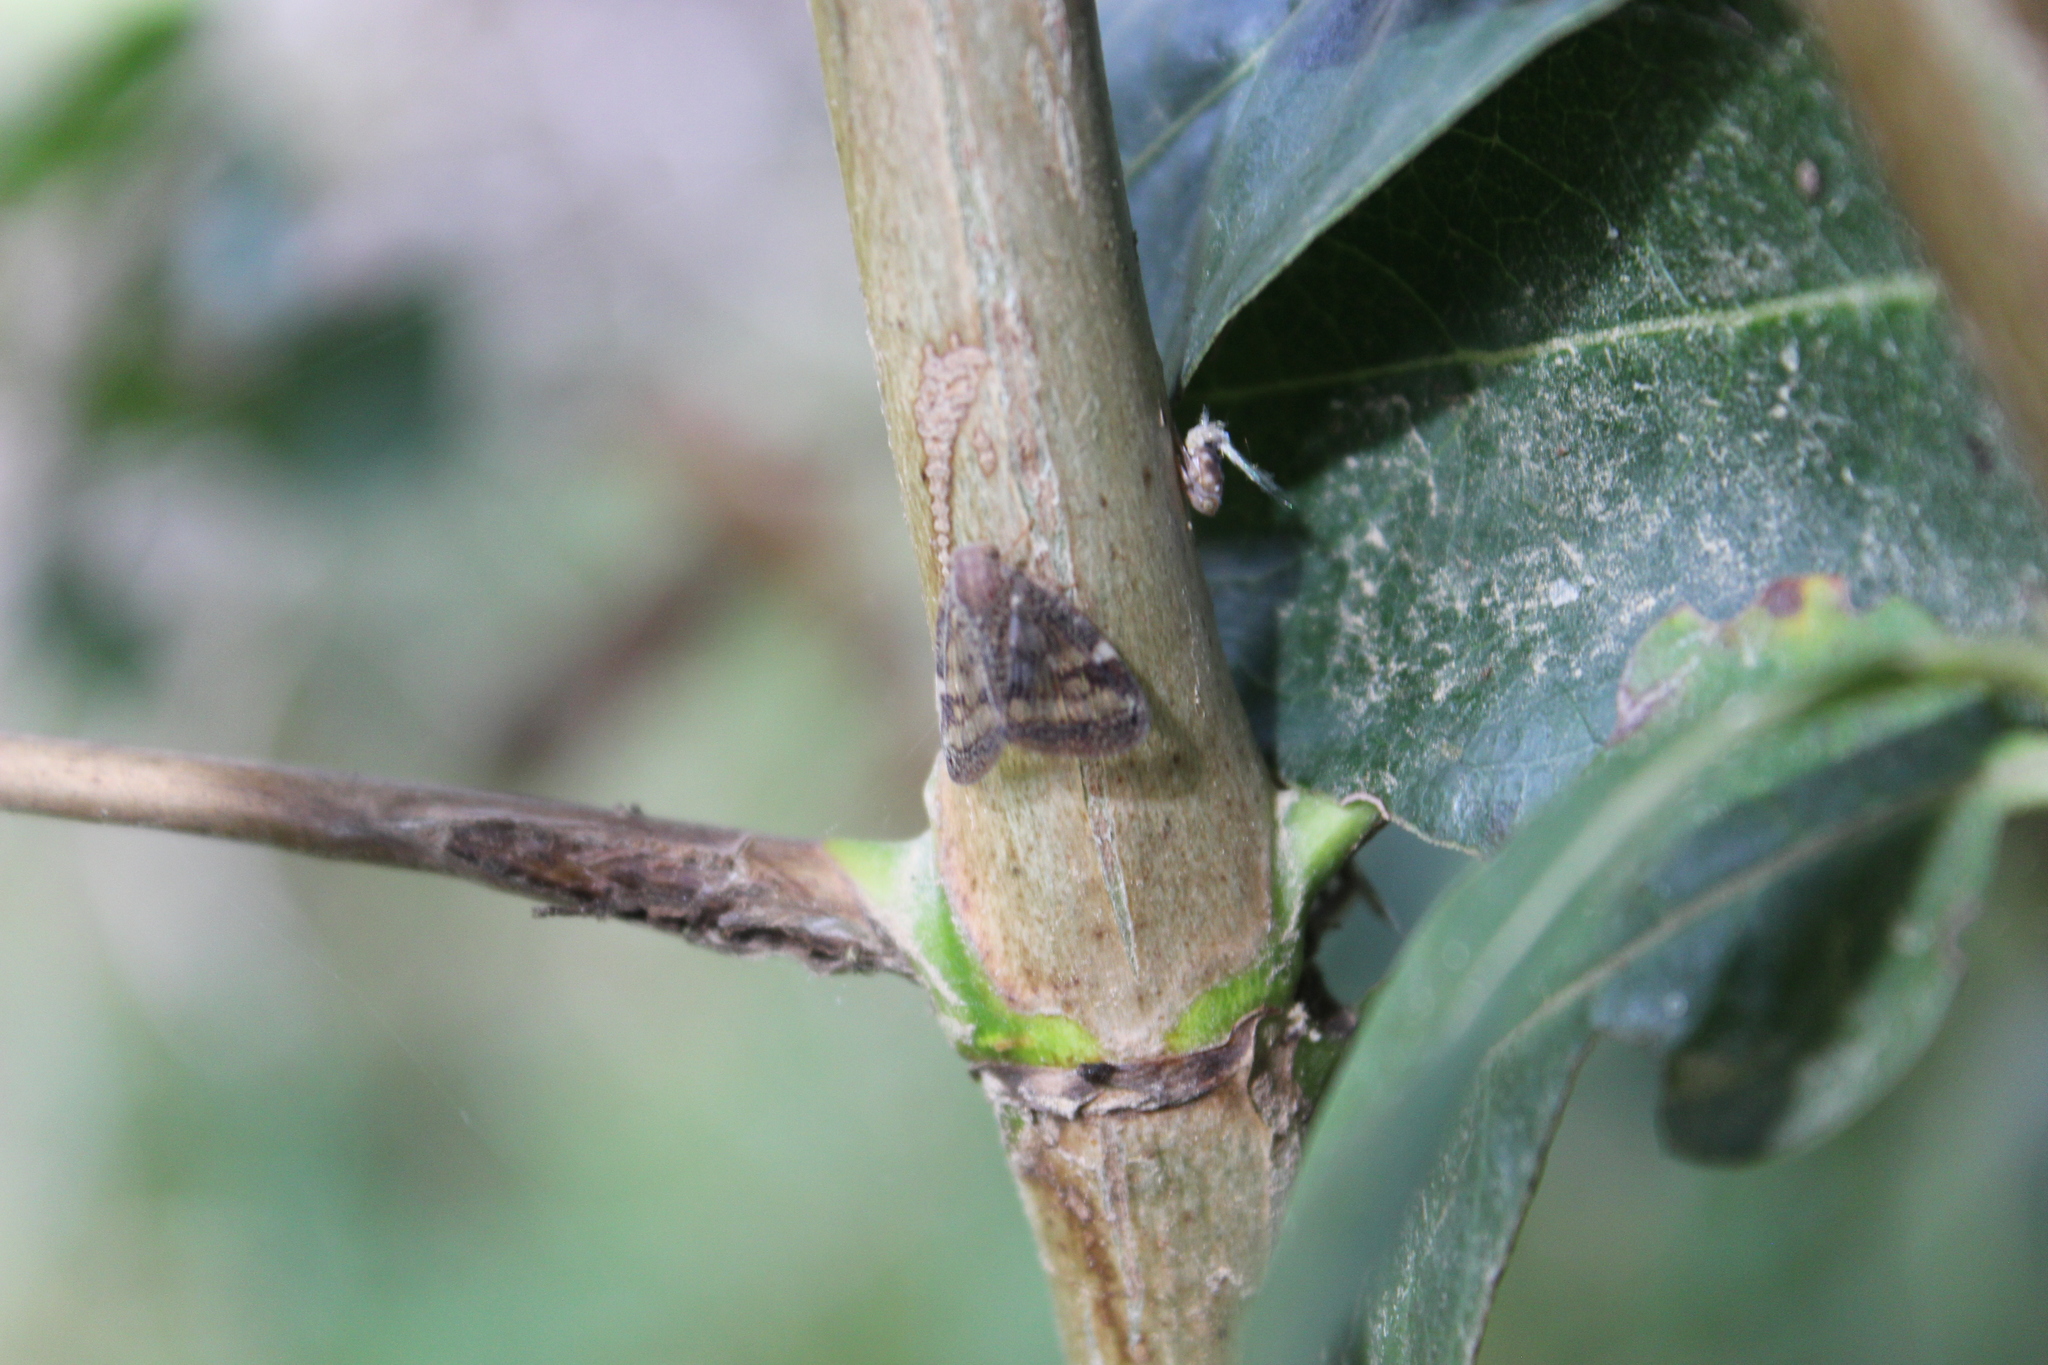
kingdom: Animalia
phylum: Arthropoda
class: Insecta
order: Hemiptera
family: Ricaniidae
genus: Scolypopa
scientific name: Scolypopa australis
